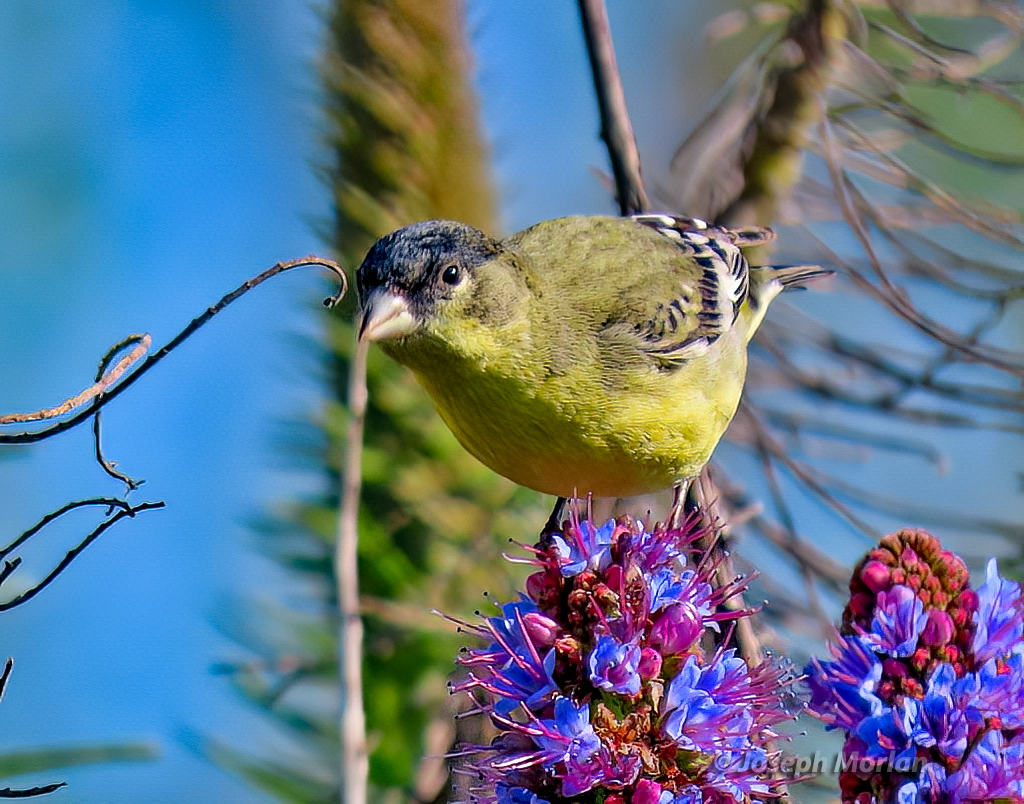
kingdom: Animalia
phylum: Chordata
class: Aves
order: Passeriformes
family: Fringillidae
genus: Spinus
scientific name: Spinus psaltria
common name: Lesser goldfinch
